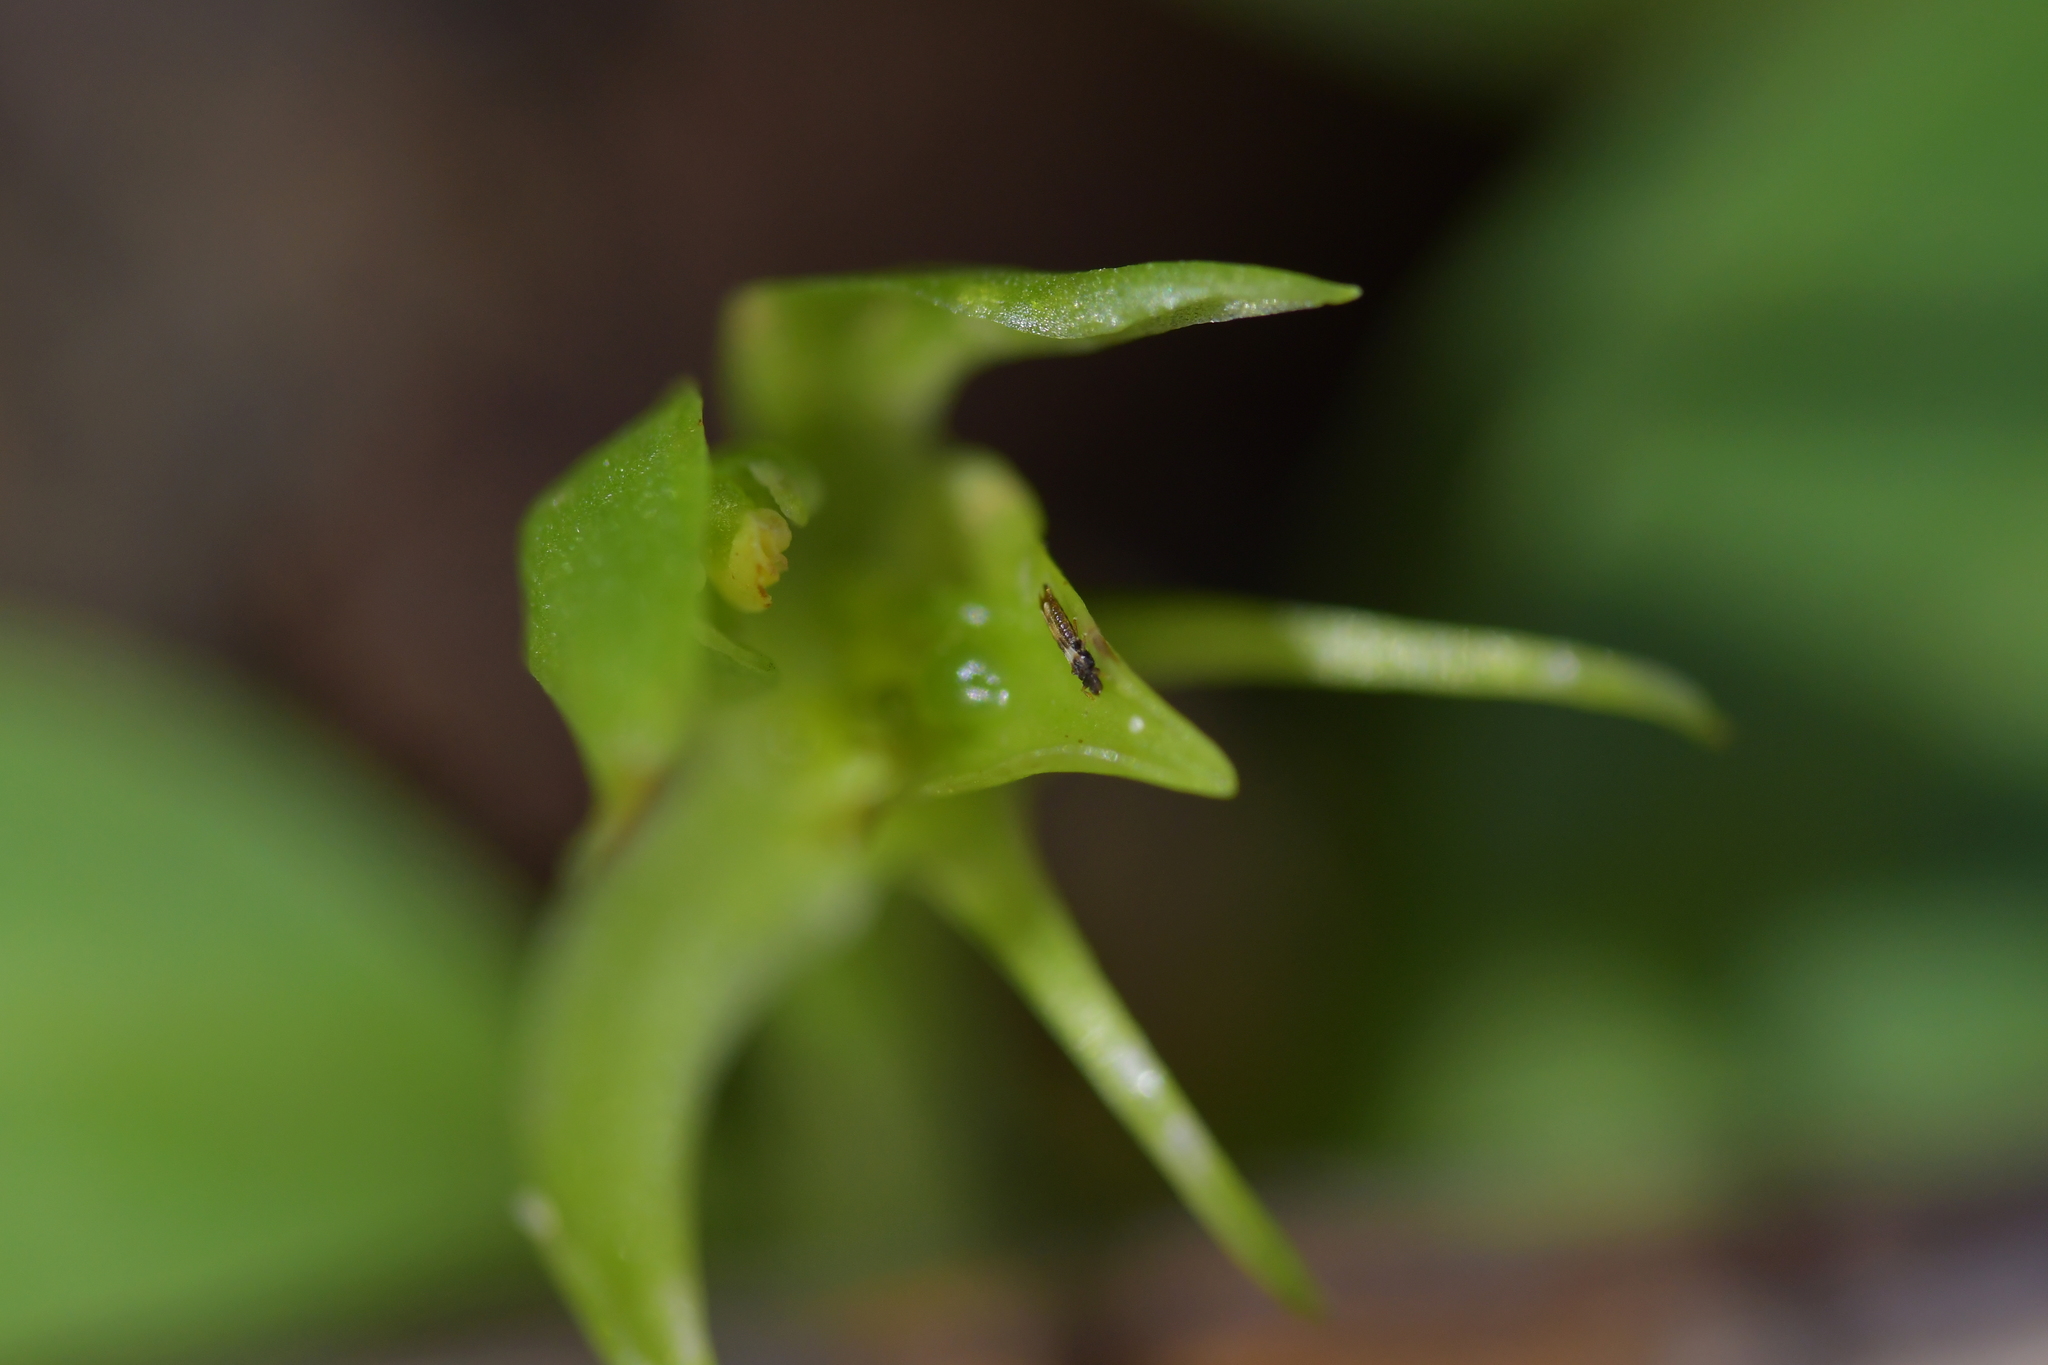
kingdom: Plantae
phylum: Tracheophyta
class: Liliopsida
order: Asparagales
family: Orchidaceae
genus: Chiloglottis
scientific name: Chiloglottis cornuta
